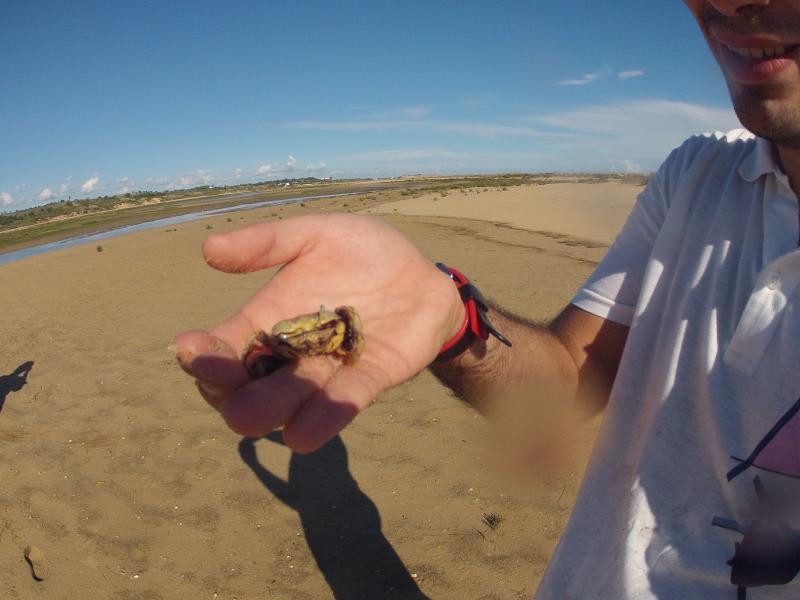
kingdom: Animalia
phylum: Arthropoda
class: Malacostraca
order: Decapoda
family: Ocypodidae
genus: Afruca
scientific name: Afruca tangeri
